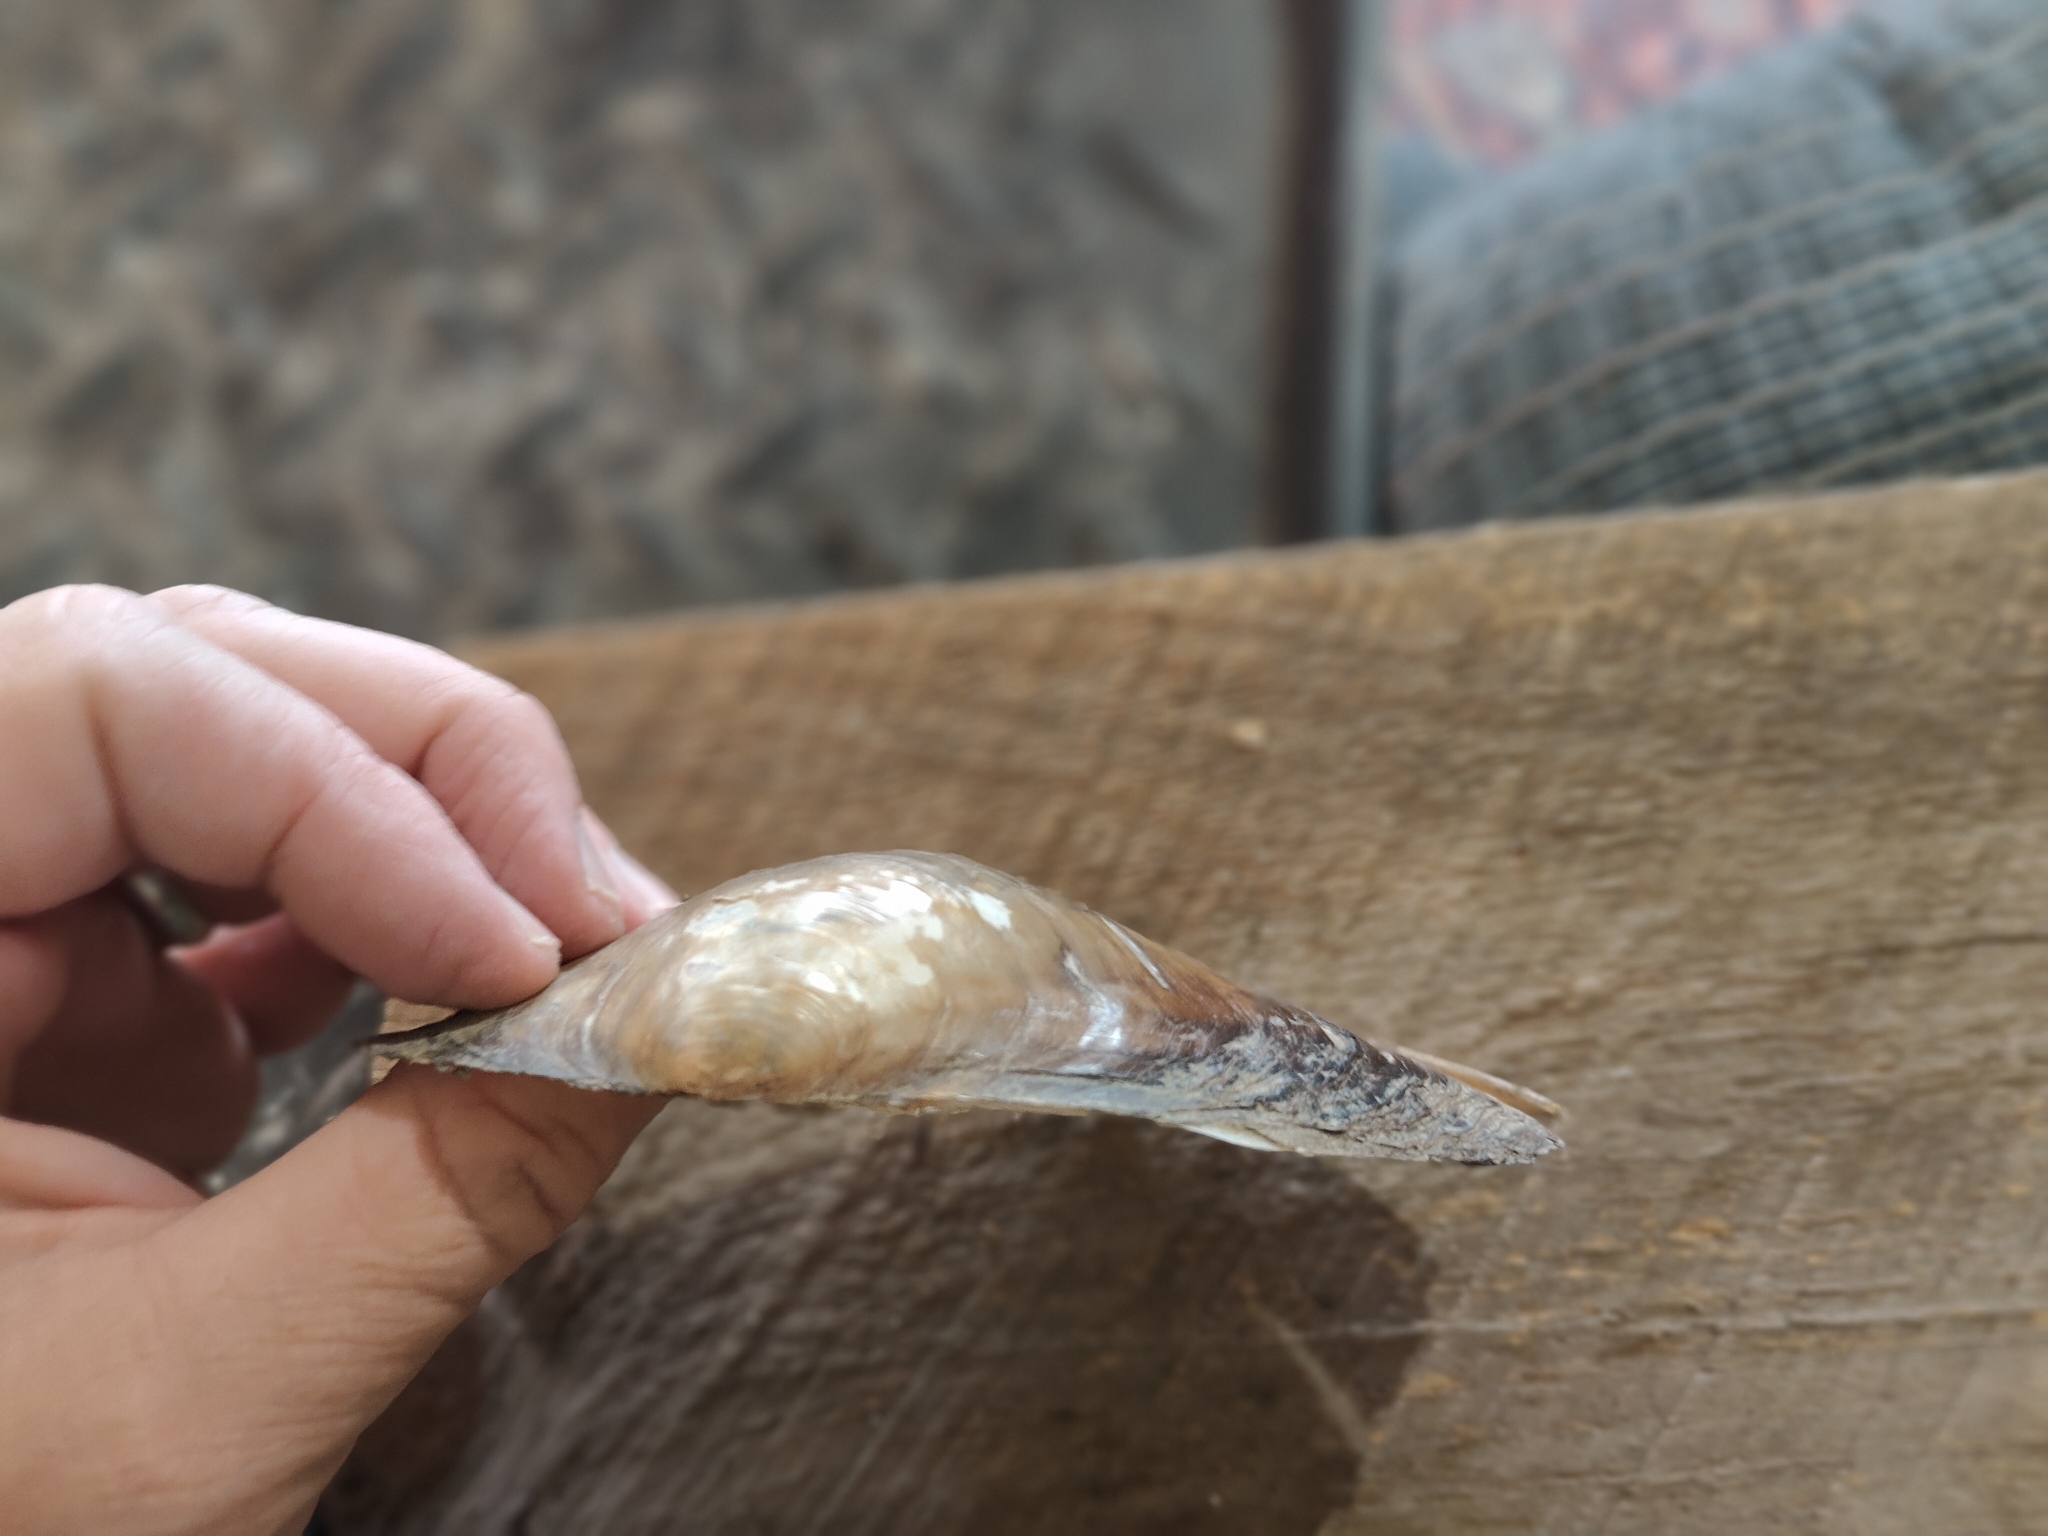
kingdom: Animalia
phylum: Mollusca
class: Bivalvia
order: Unionida
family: Unionidae
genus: Pyganodon
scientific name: Pyganodon grandis
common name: Giant floater
